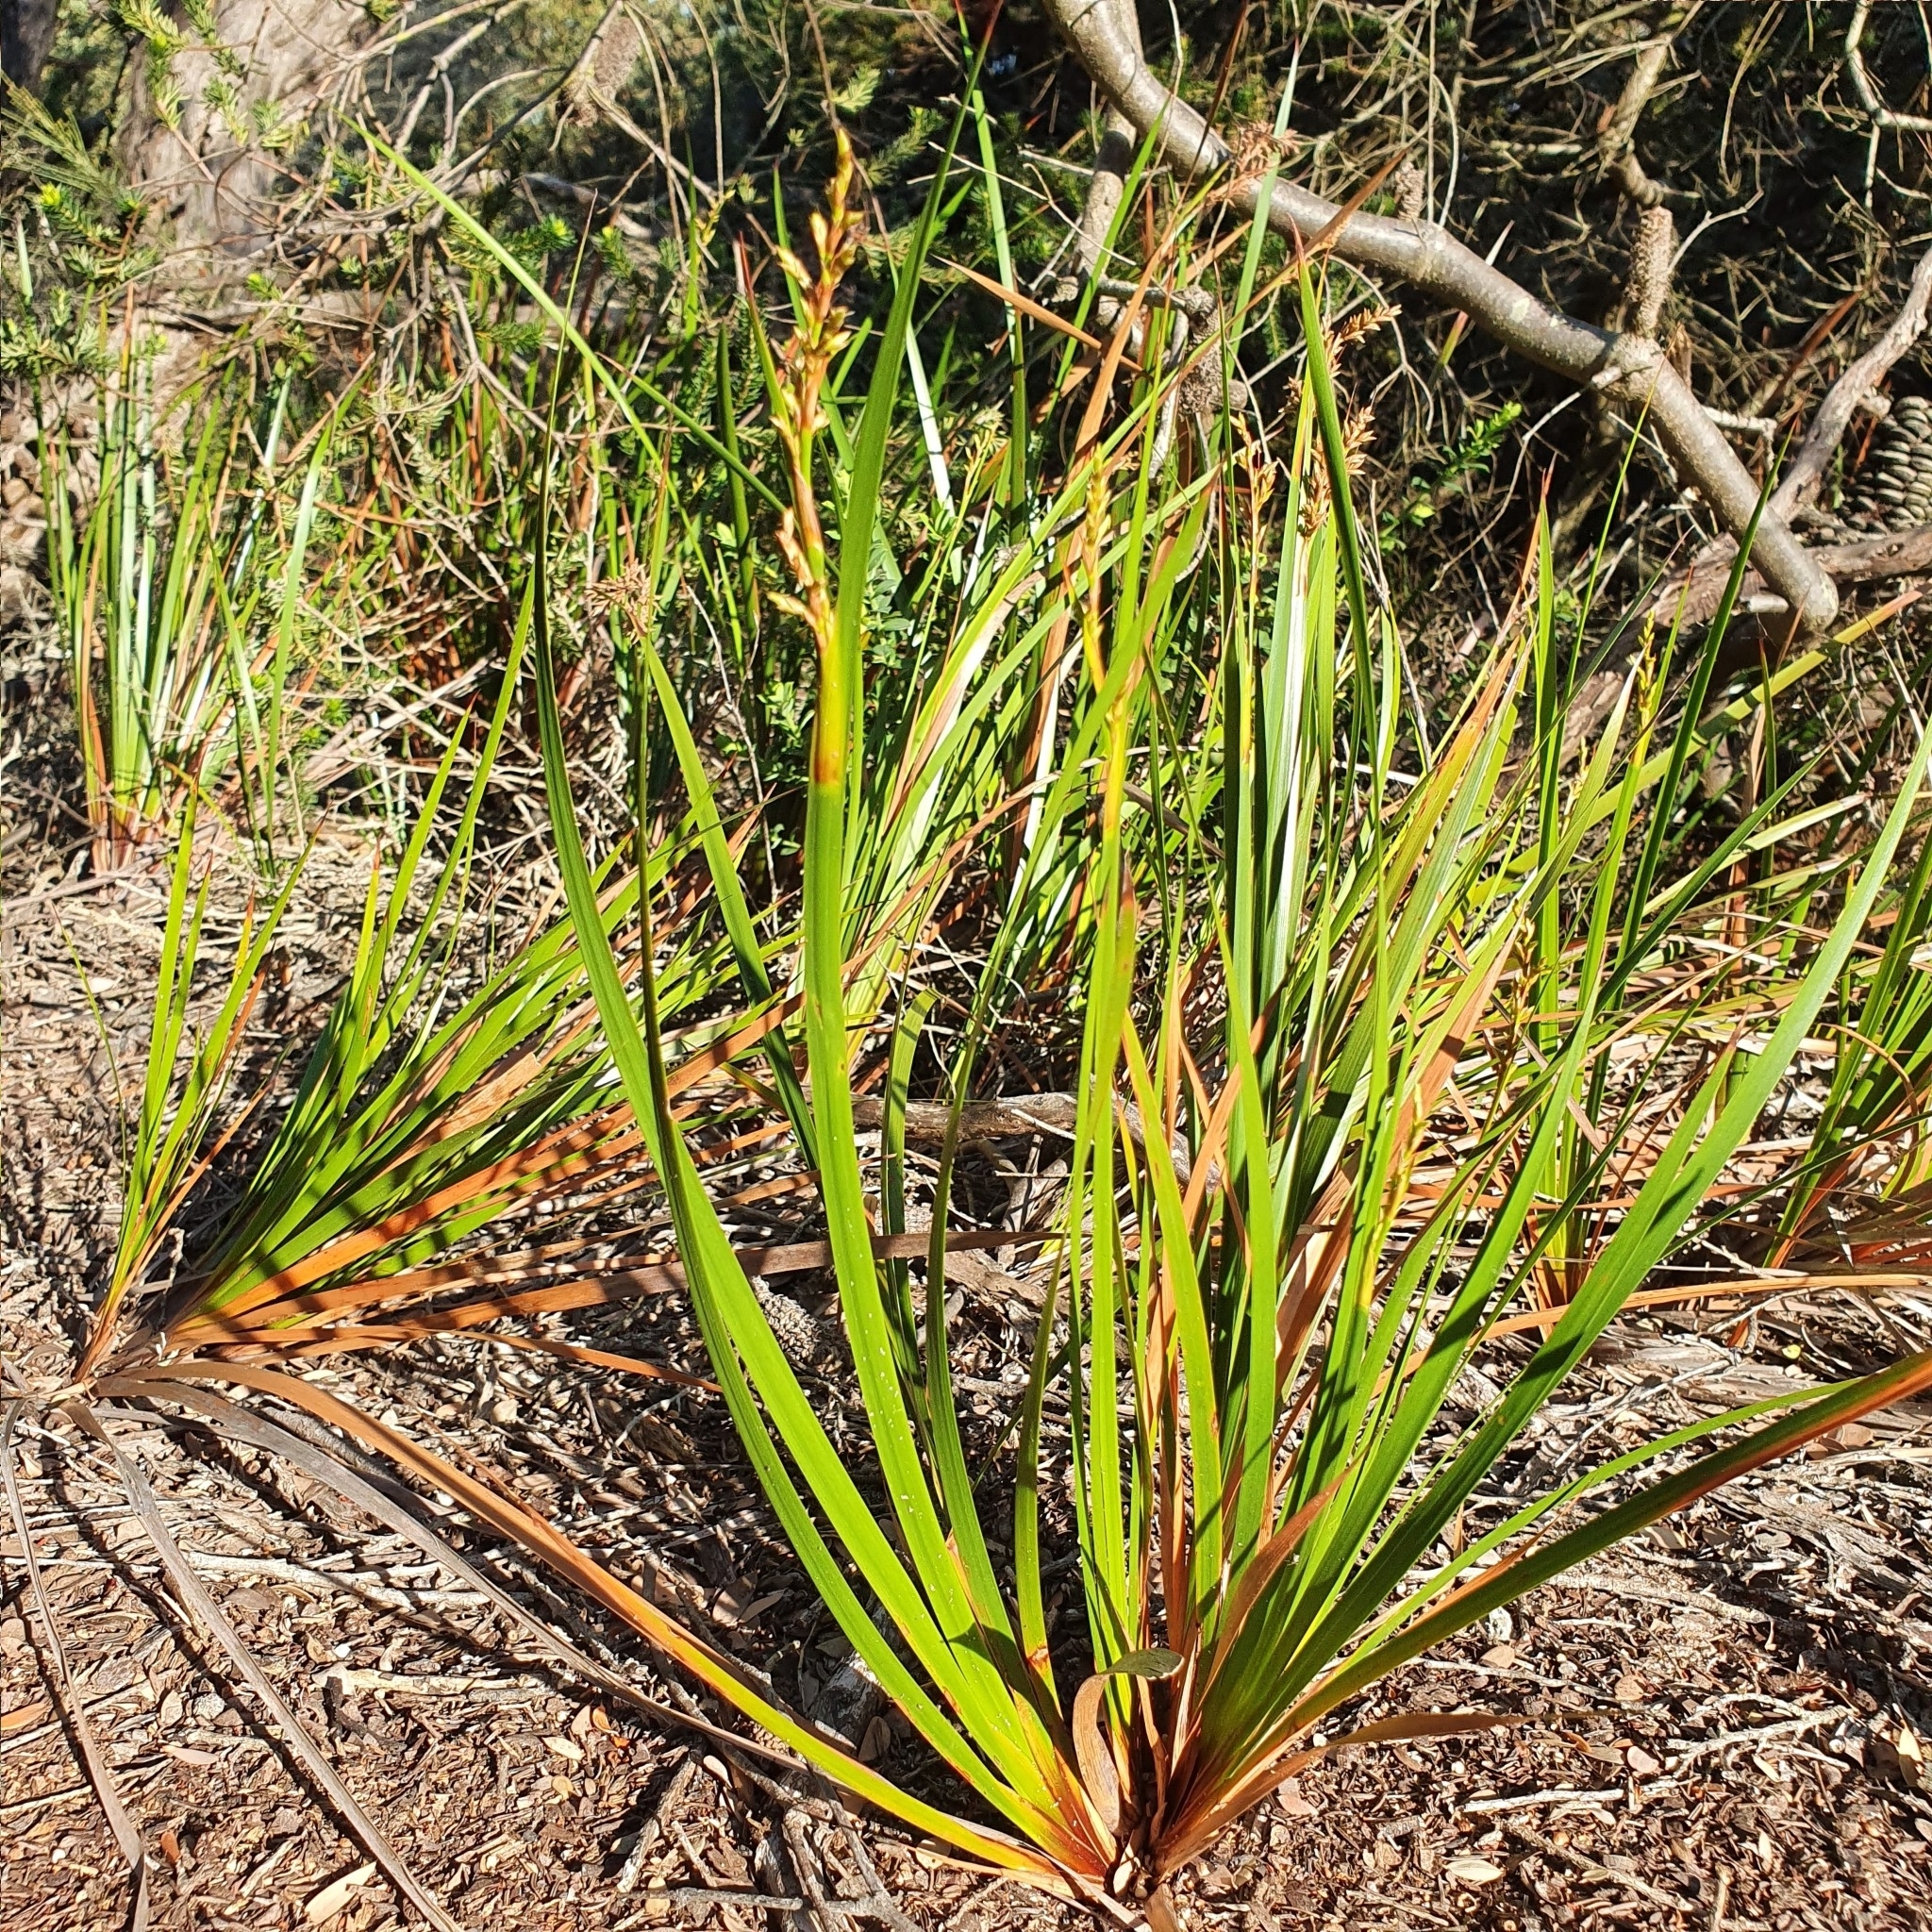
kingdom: Plantae
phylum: Tracheophyta
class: Liliopsida
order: Poales
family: Cyperaceae
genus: Lepidosperma
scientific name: Lepidosperma laterale
